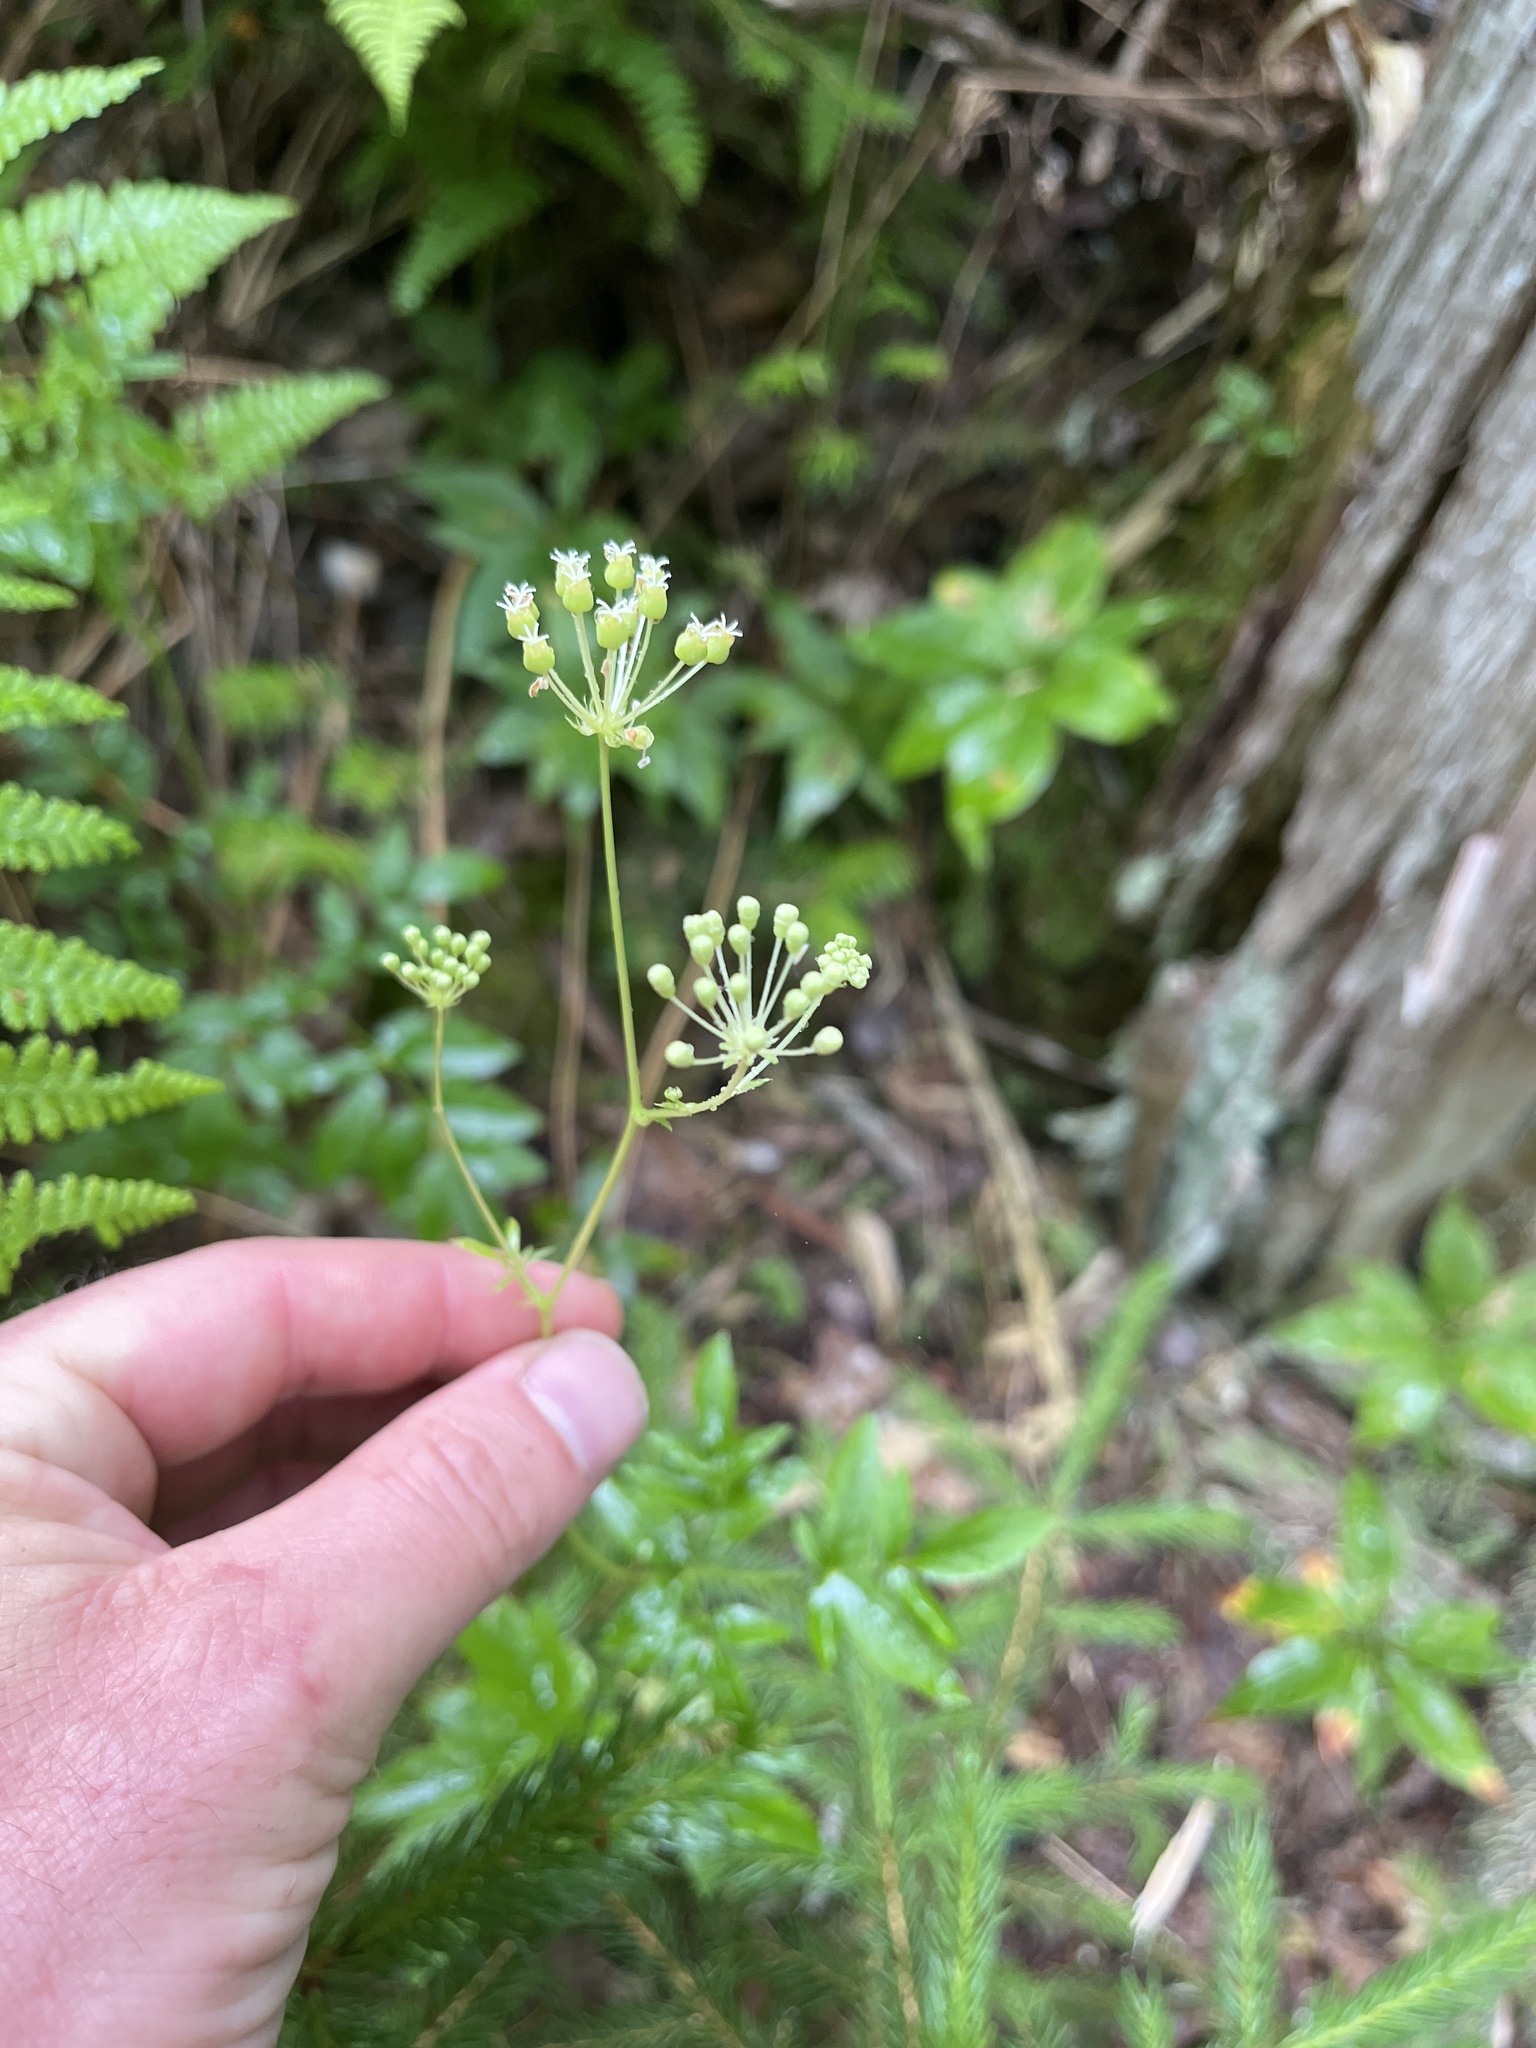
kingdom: Plantae
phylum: Tracheophyta
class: Magnoliopsida
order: Apiales
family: Araliaceae
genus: Aralia
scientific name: Aralia hispida
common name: Bristly sarsaparilla
